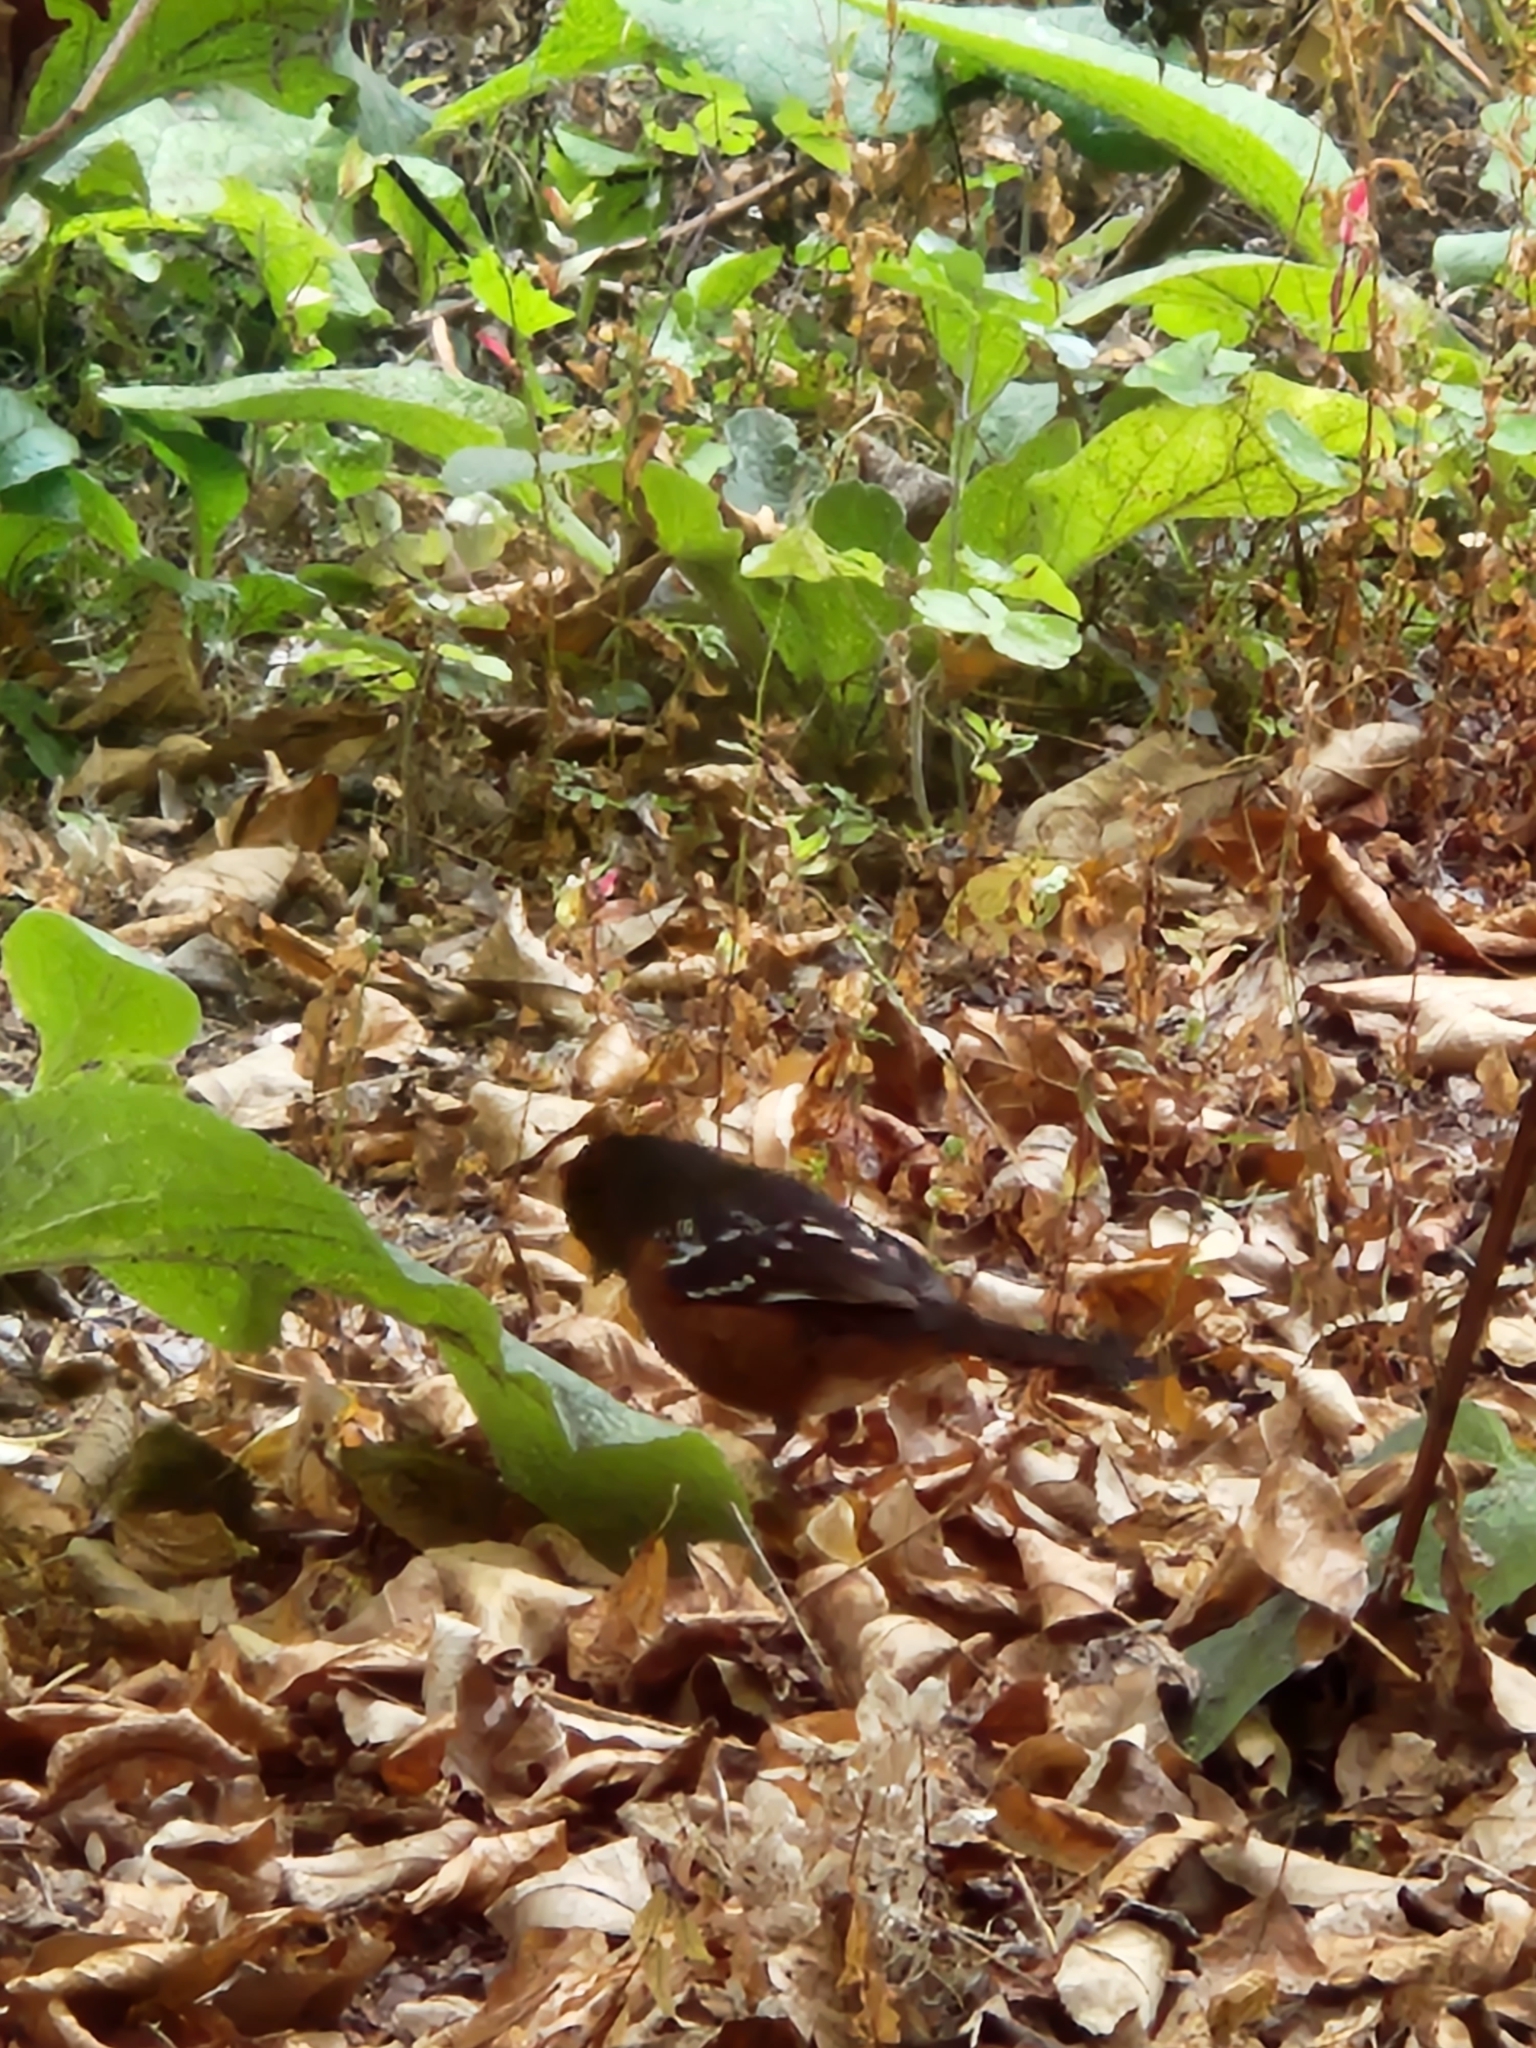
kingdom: Animalia
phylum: Chordata
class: Aves
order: Passeriformes
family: Passerellidae
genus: Pipilo
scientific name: Pipilo maculatus
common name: Spotted towhee
